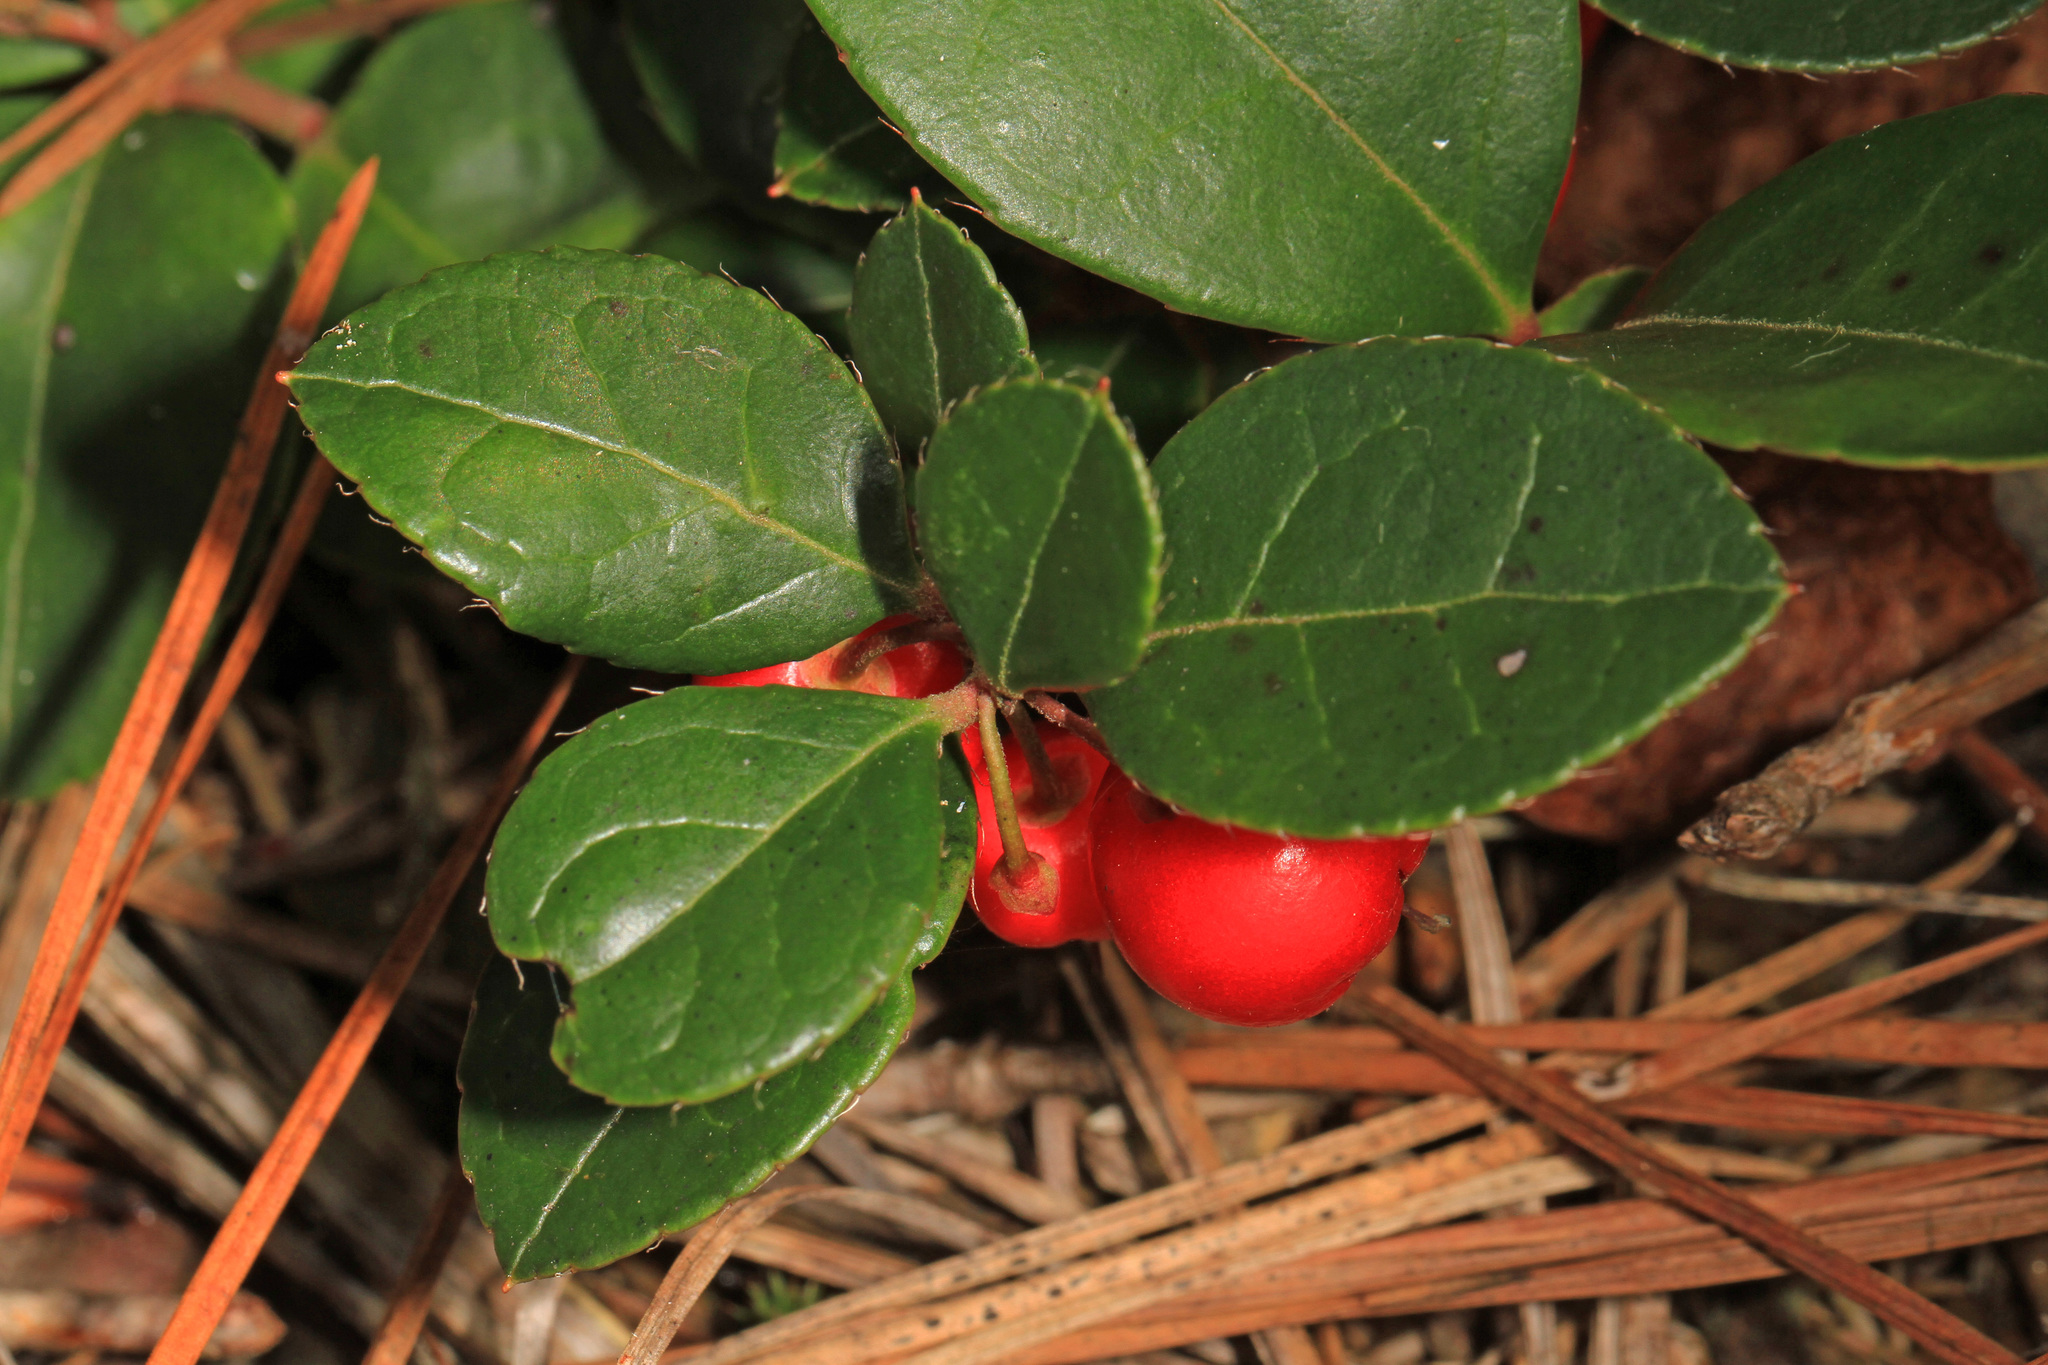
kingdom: Plantae
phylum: Tracheophyta
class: Magnoliopsida
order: Ericales
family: Ericaceae
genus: Gaultheria
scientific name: Gaultheria procumbens
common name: Checkerberry
